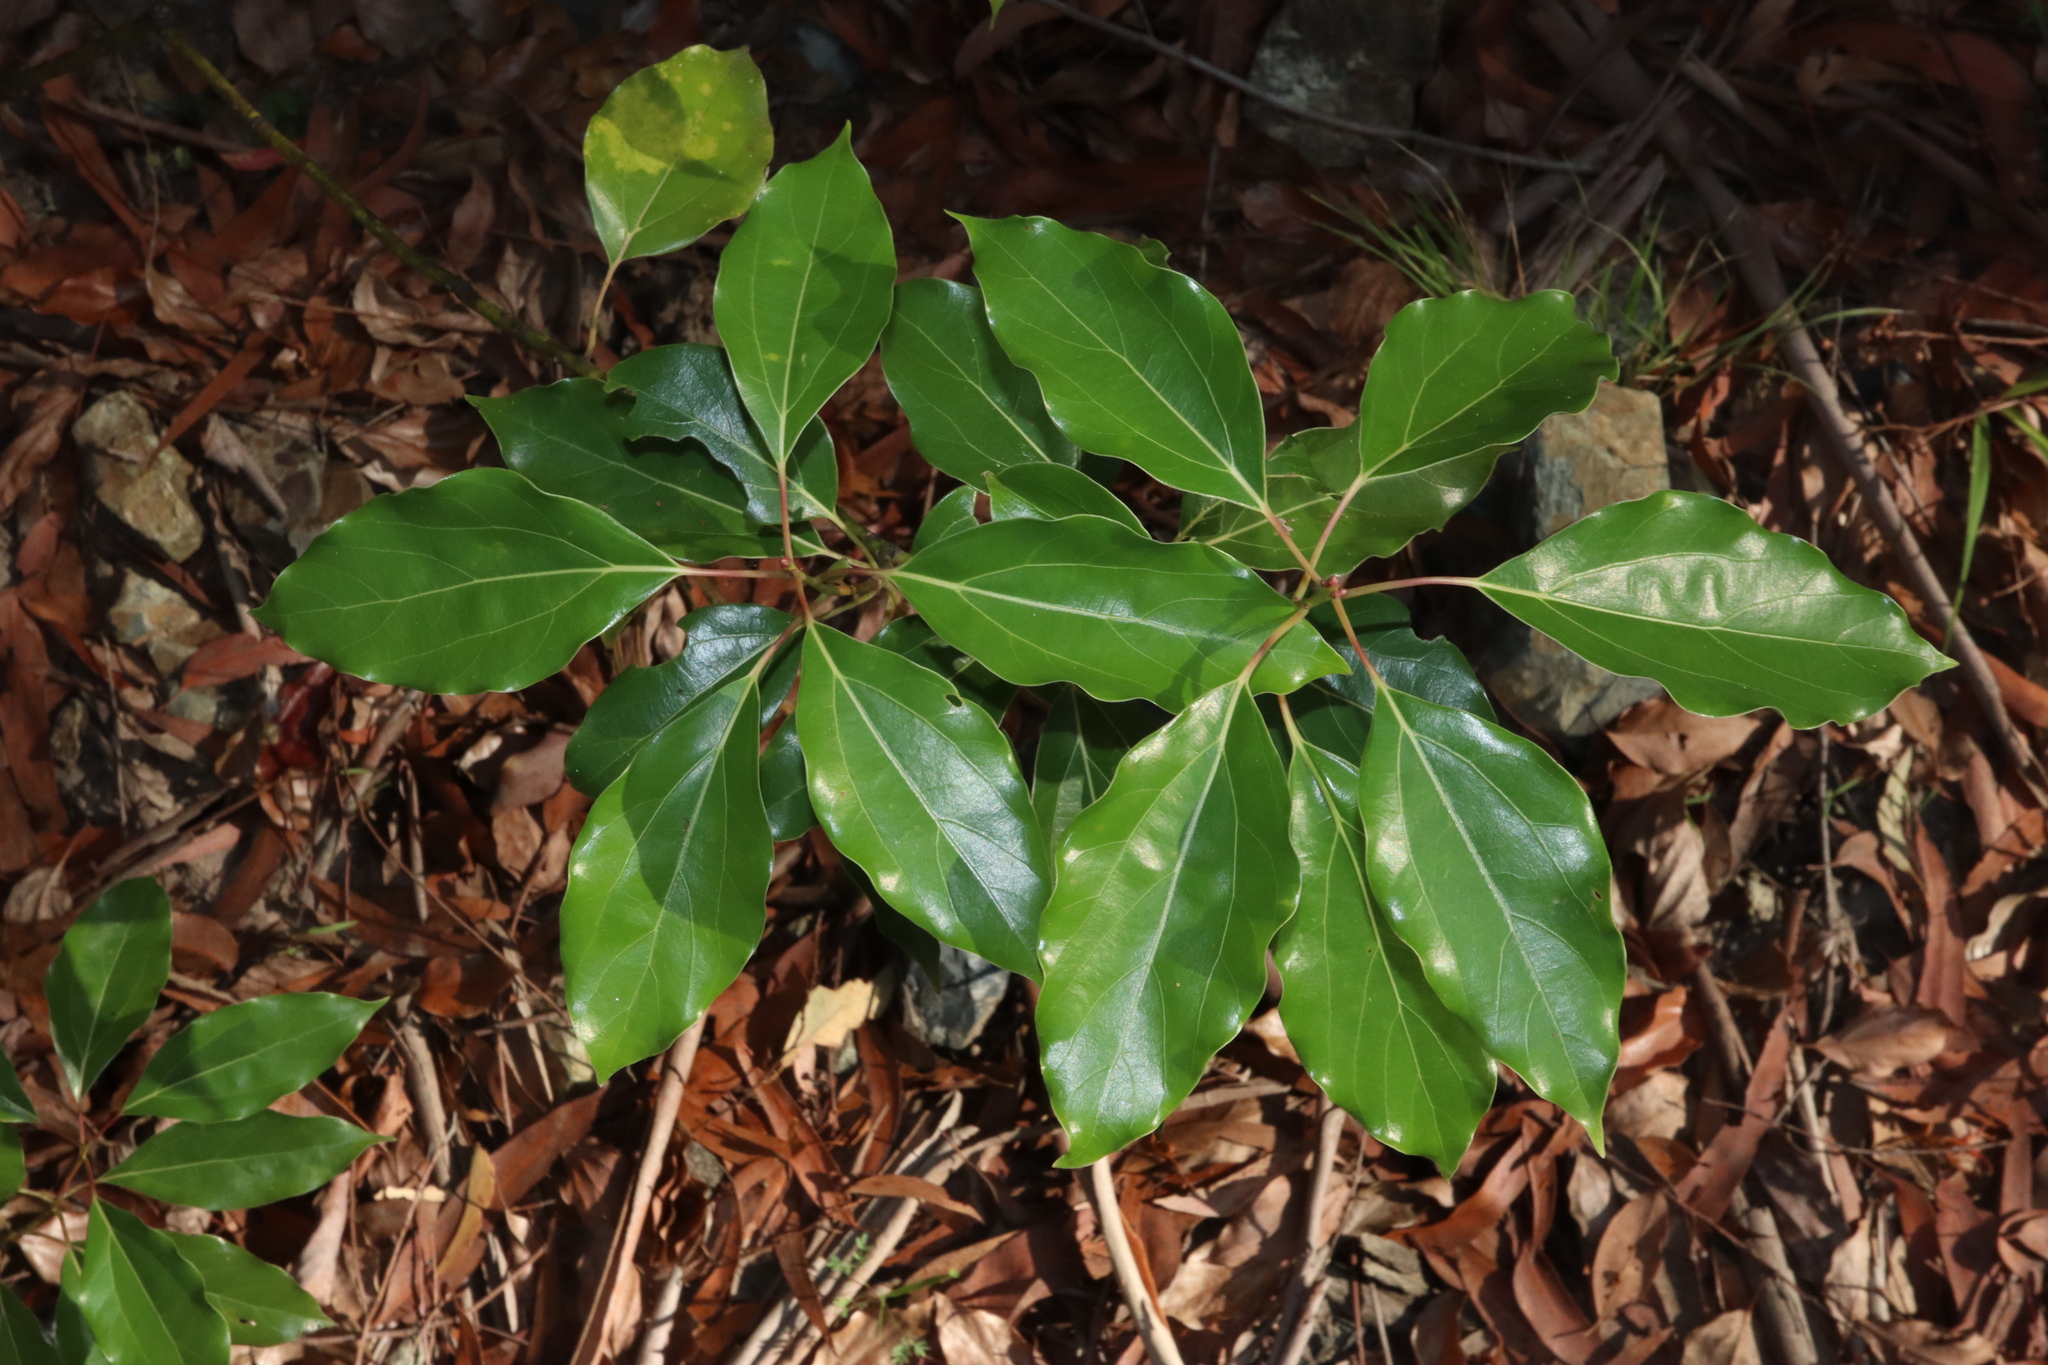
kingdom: Plantae
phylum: Tracheophyta
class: Magnoliopsida
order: Laurales
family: Lauraceae
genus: Cinnamomum
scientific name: Cinnamomum camphora
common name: Camphortree
